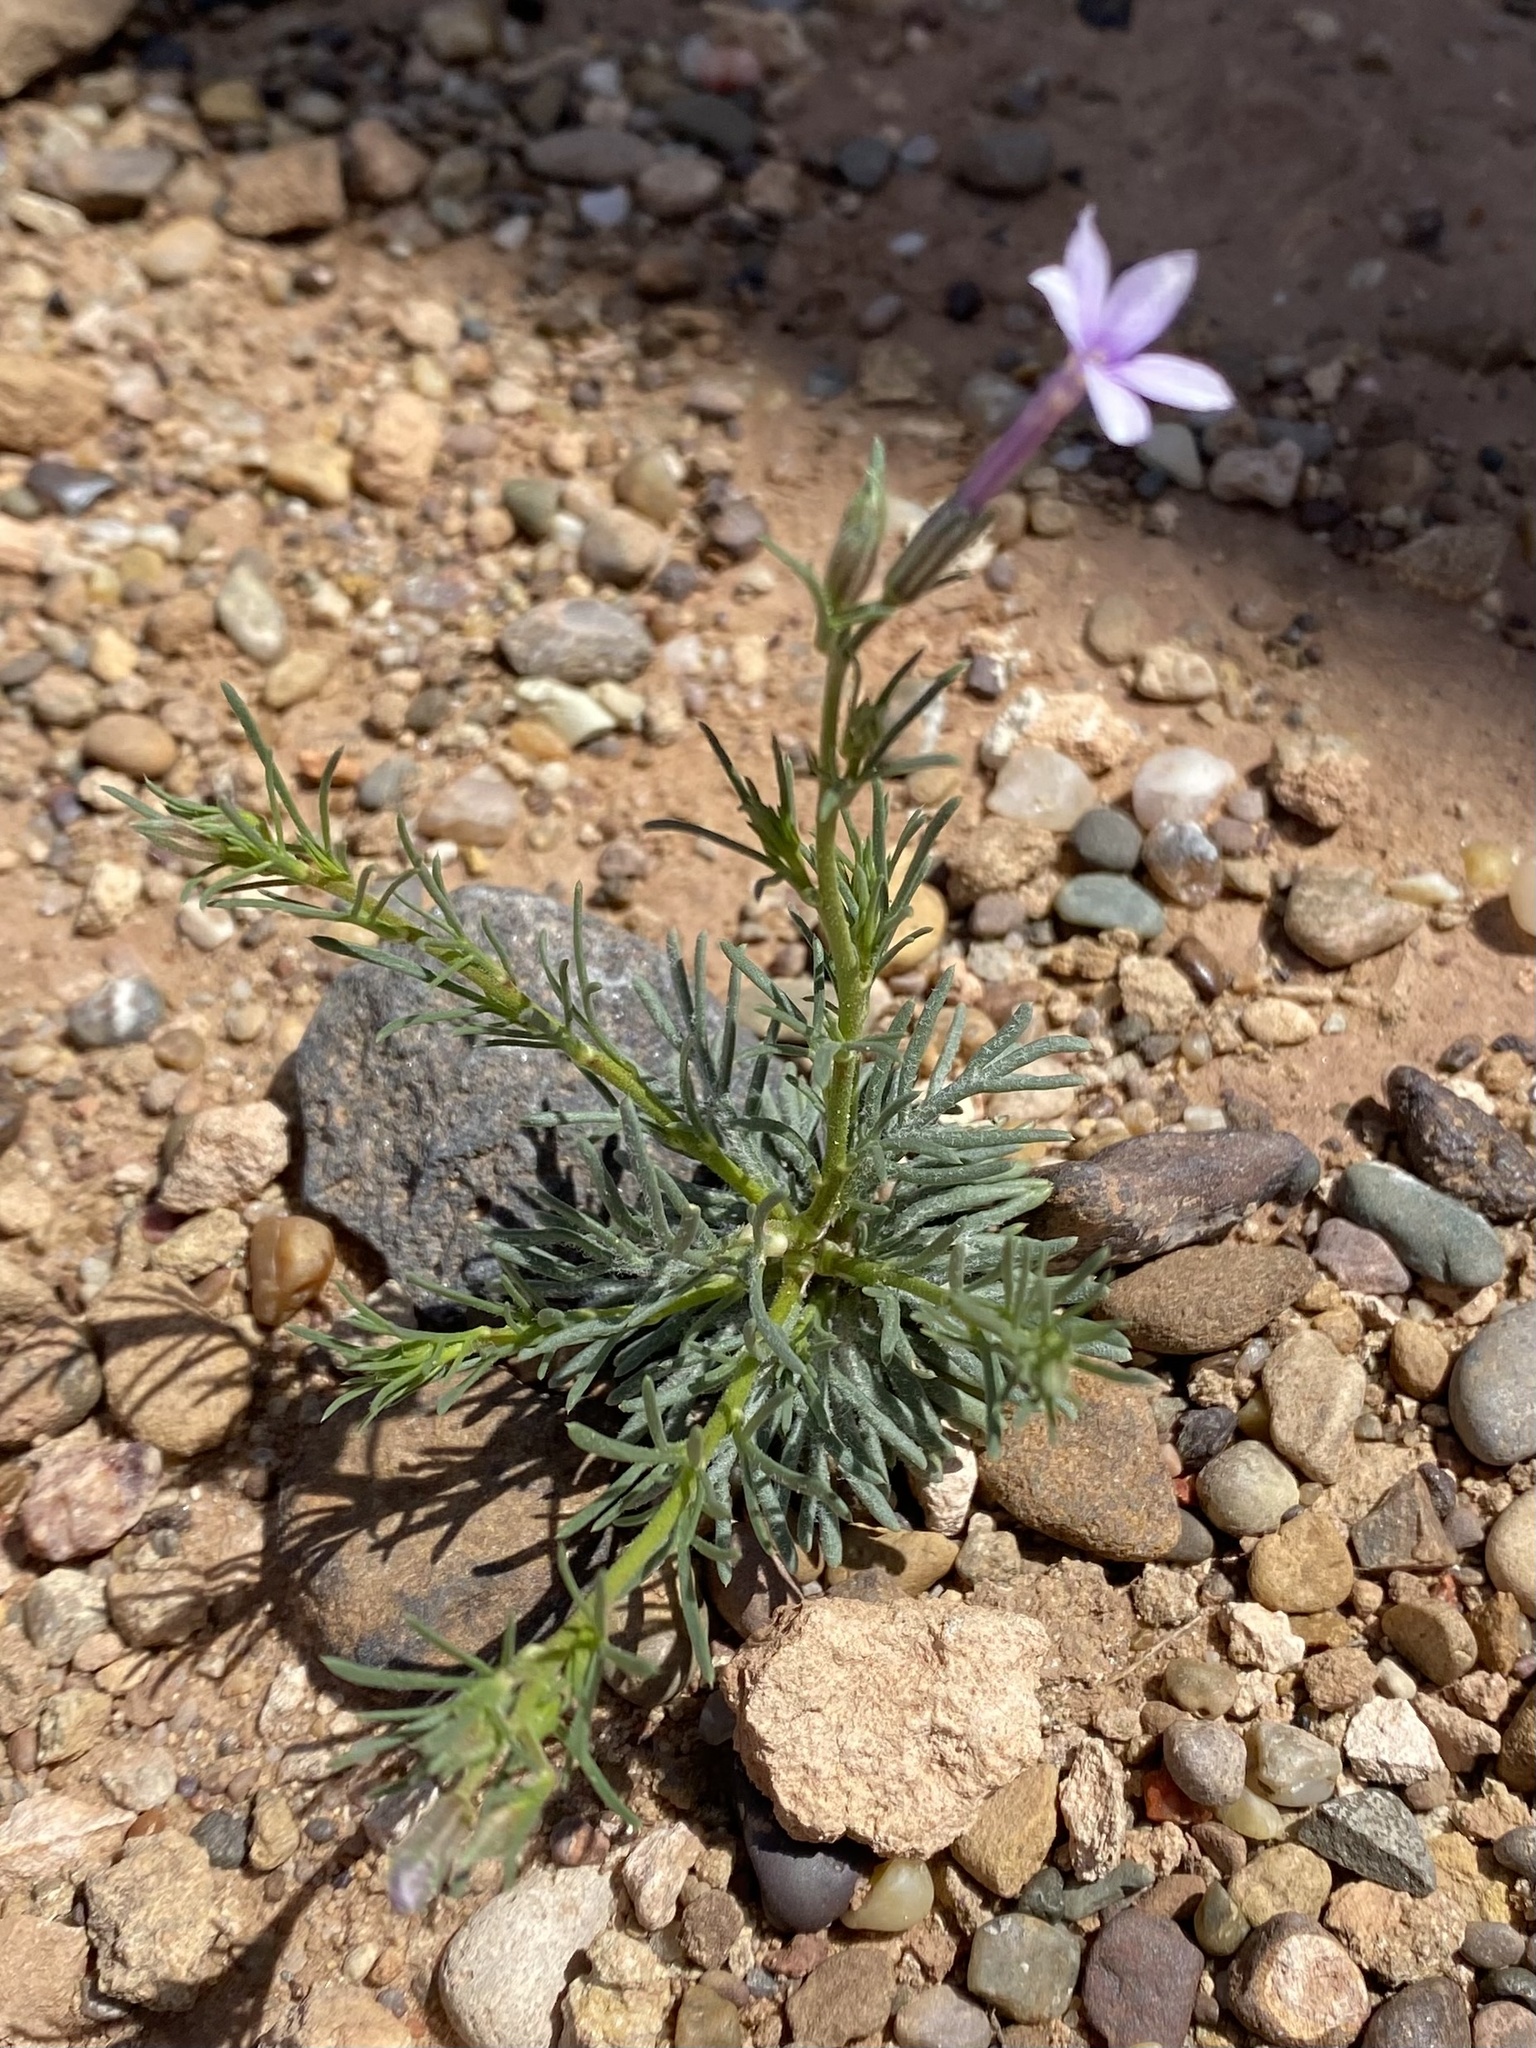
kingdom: Plantae
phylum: Tracheophyta
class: Magnoliopsida
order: Ericales
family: Polemoniaceae
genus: Ipomopsis
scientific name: Ipomopsis laxiflora
